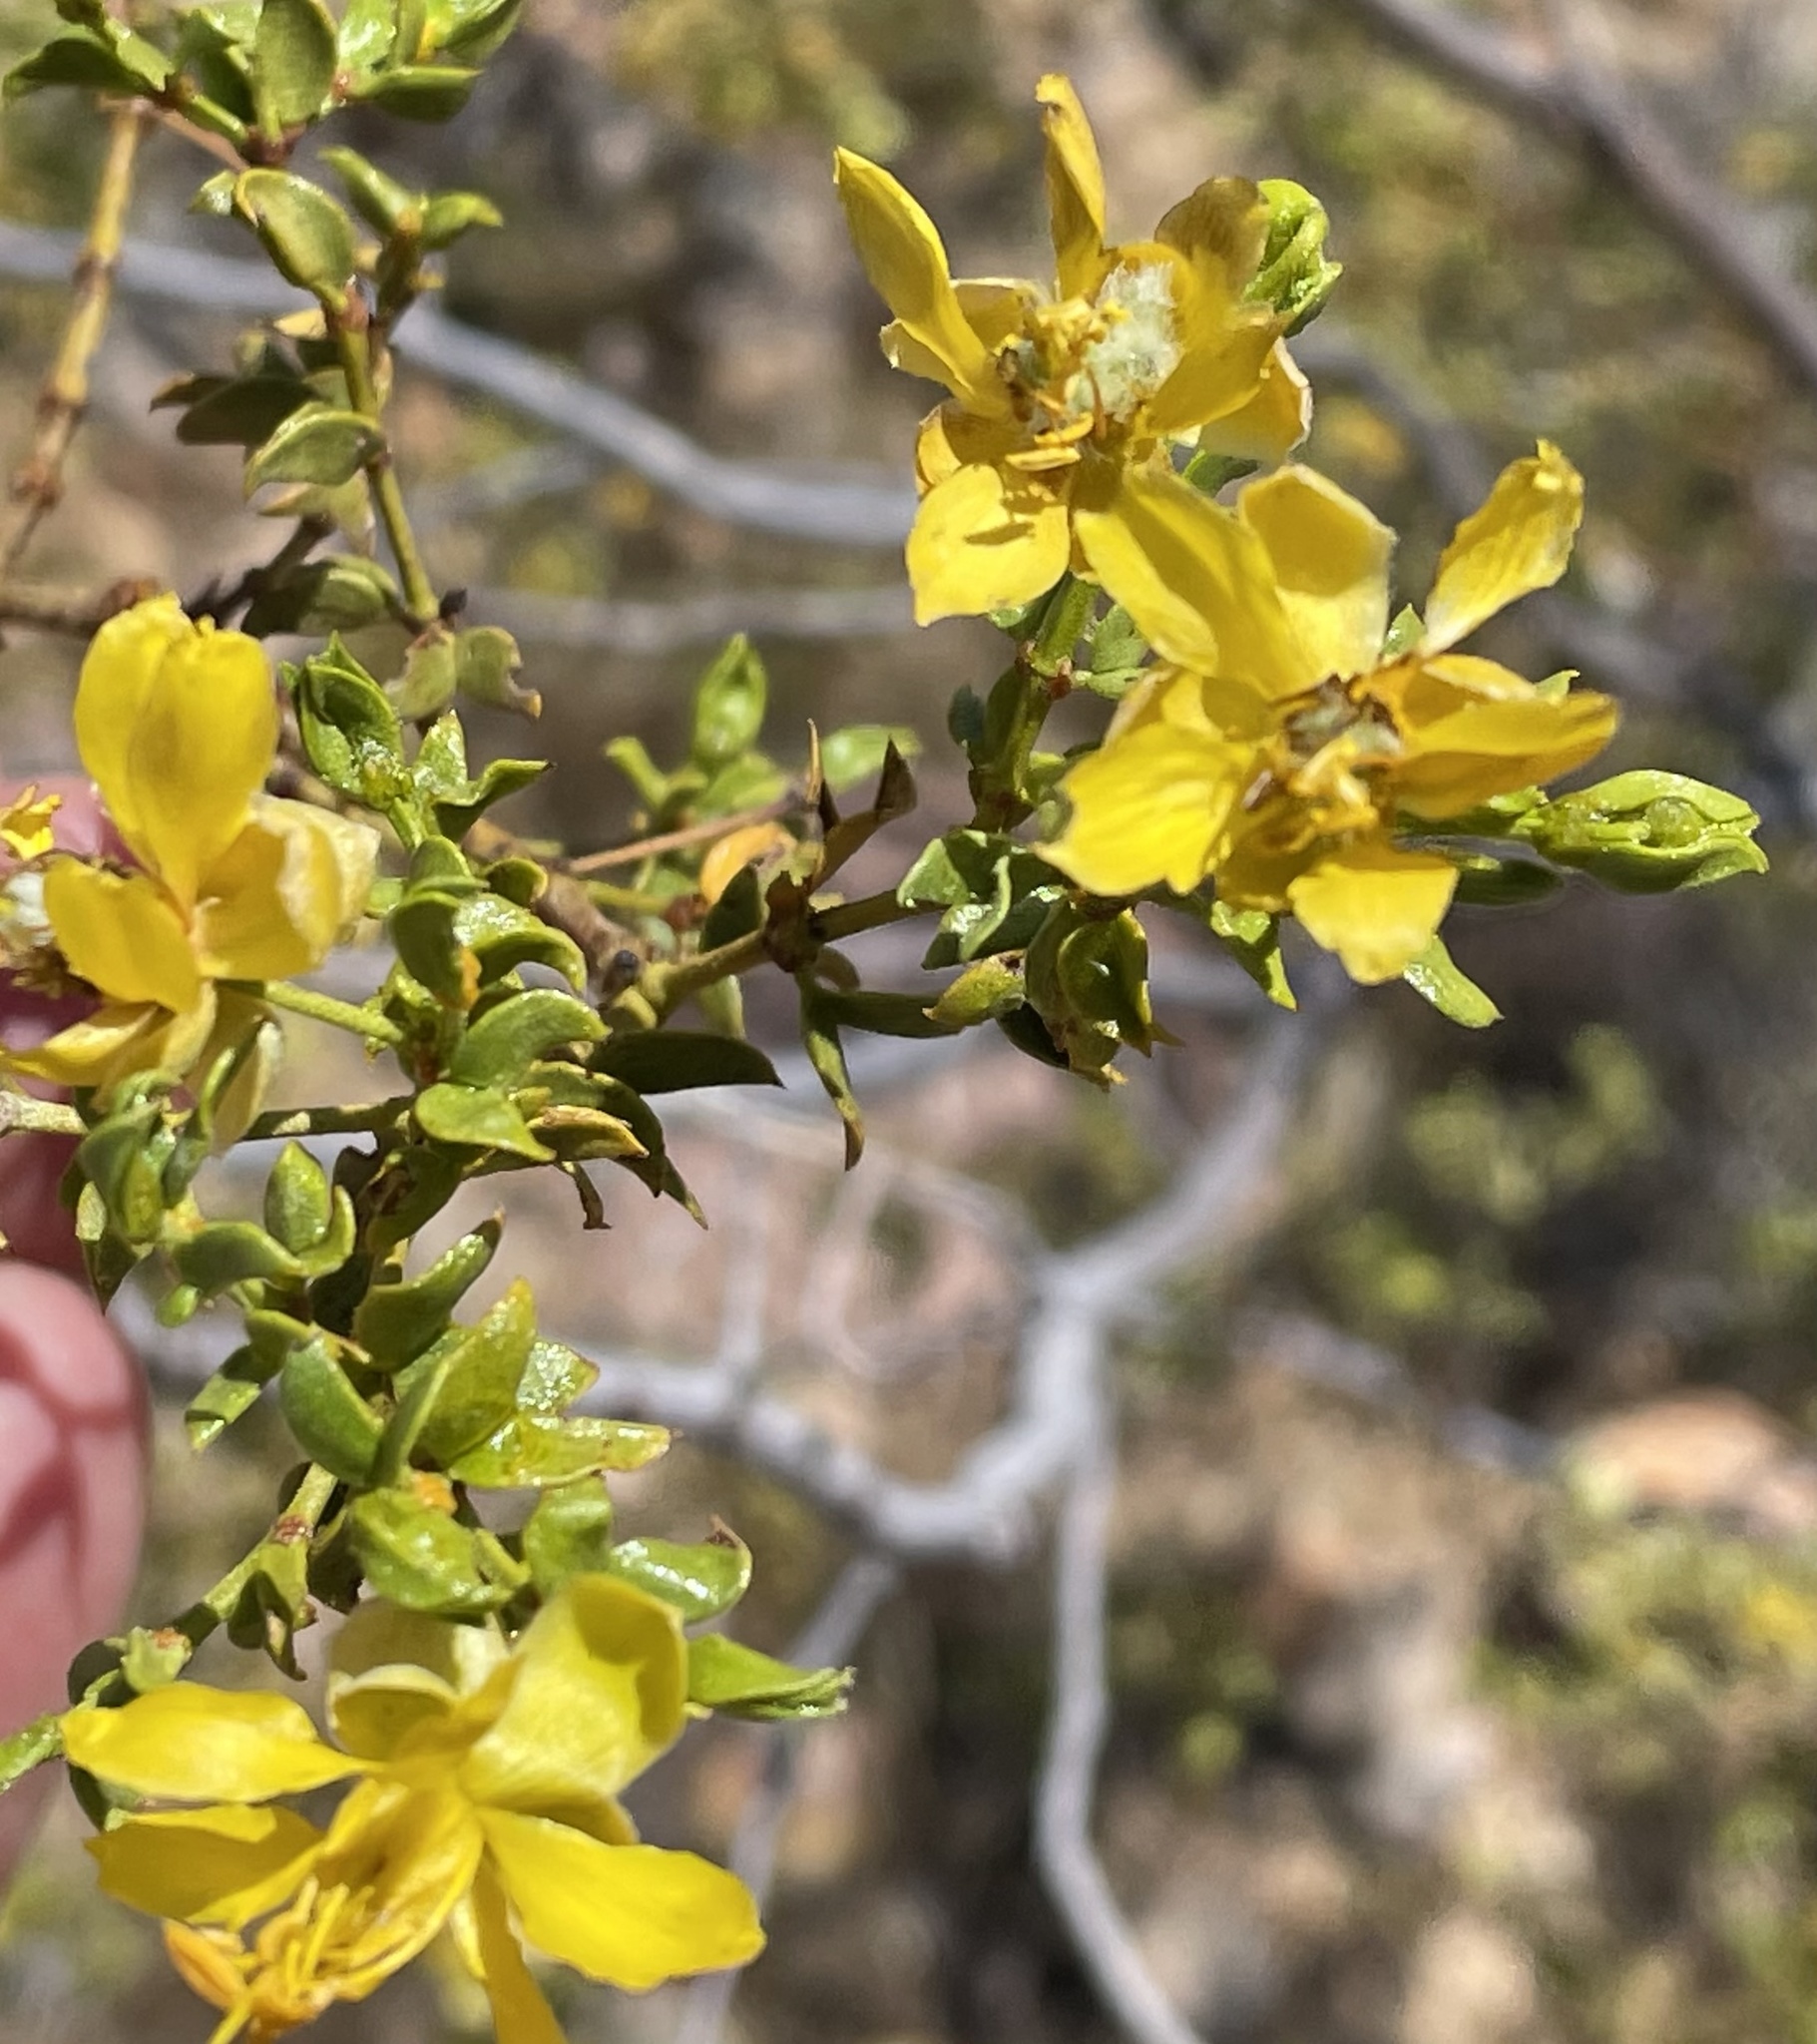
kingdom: Plantae
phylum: Tracheophyta
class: Magnoliopsida
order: Zygophyllales
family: Zygophyllaceae
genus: Larrea
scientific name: Larrea tridentata
